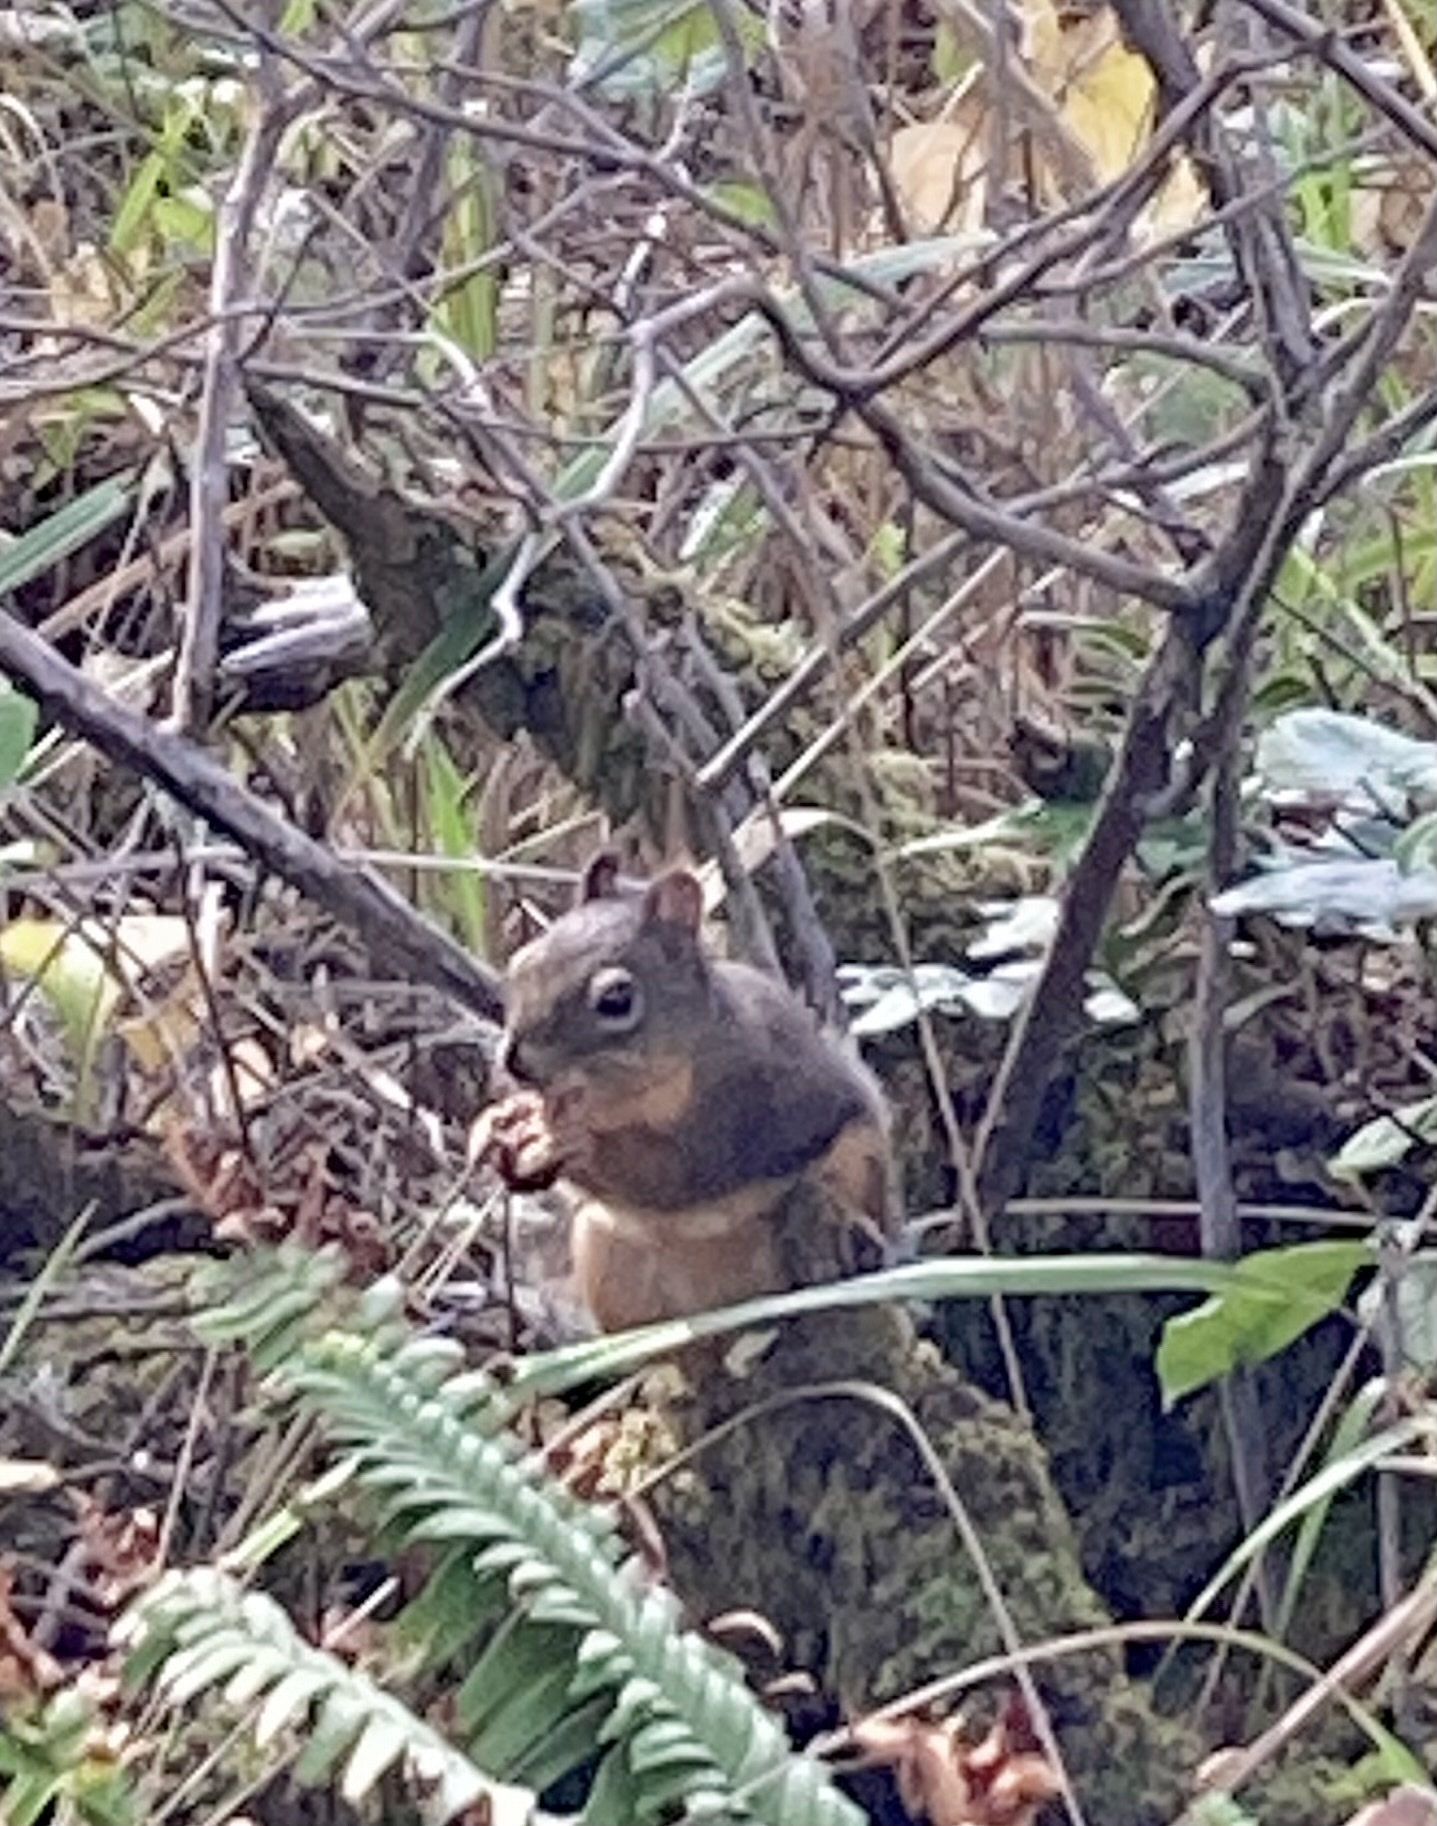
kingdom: Animalia
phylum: Chordata
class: Mammalia
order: Rodentia
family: Sciuridae
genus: Tamiasciurus
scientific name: Tamiasciurus douglasii
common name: Douglas's squirrel
